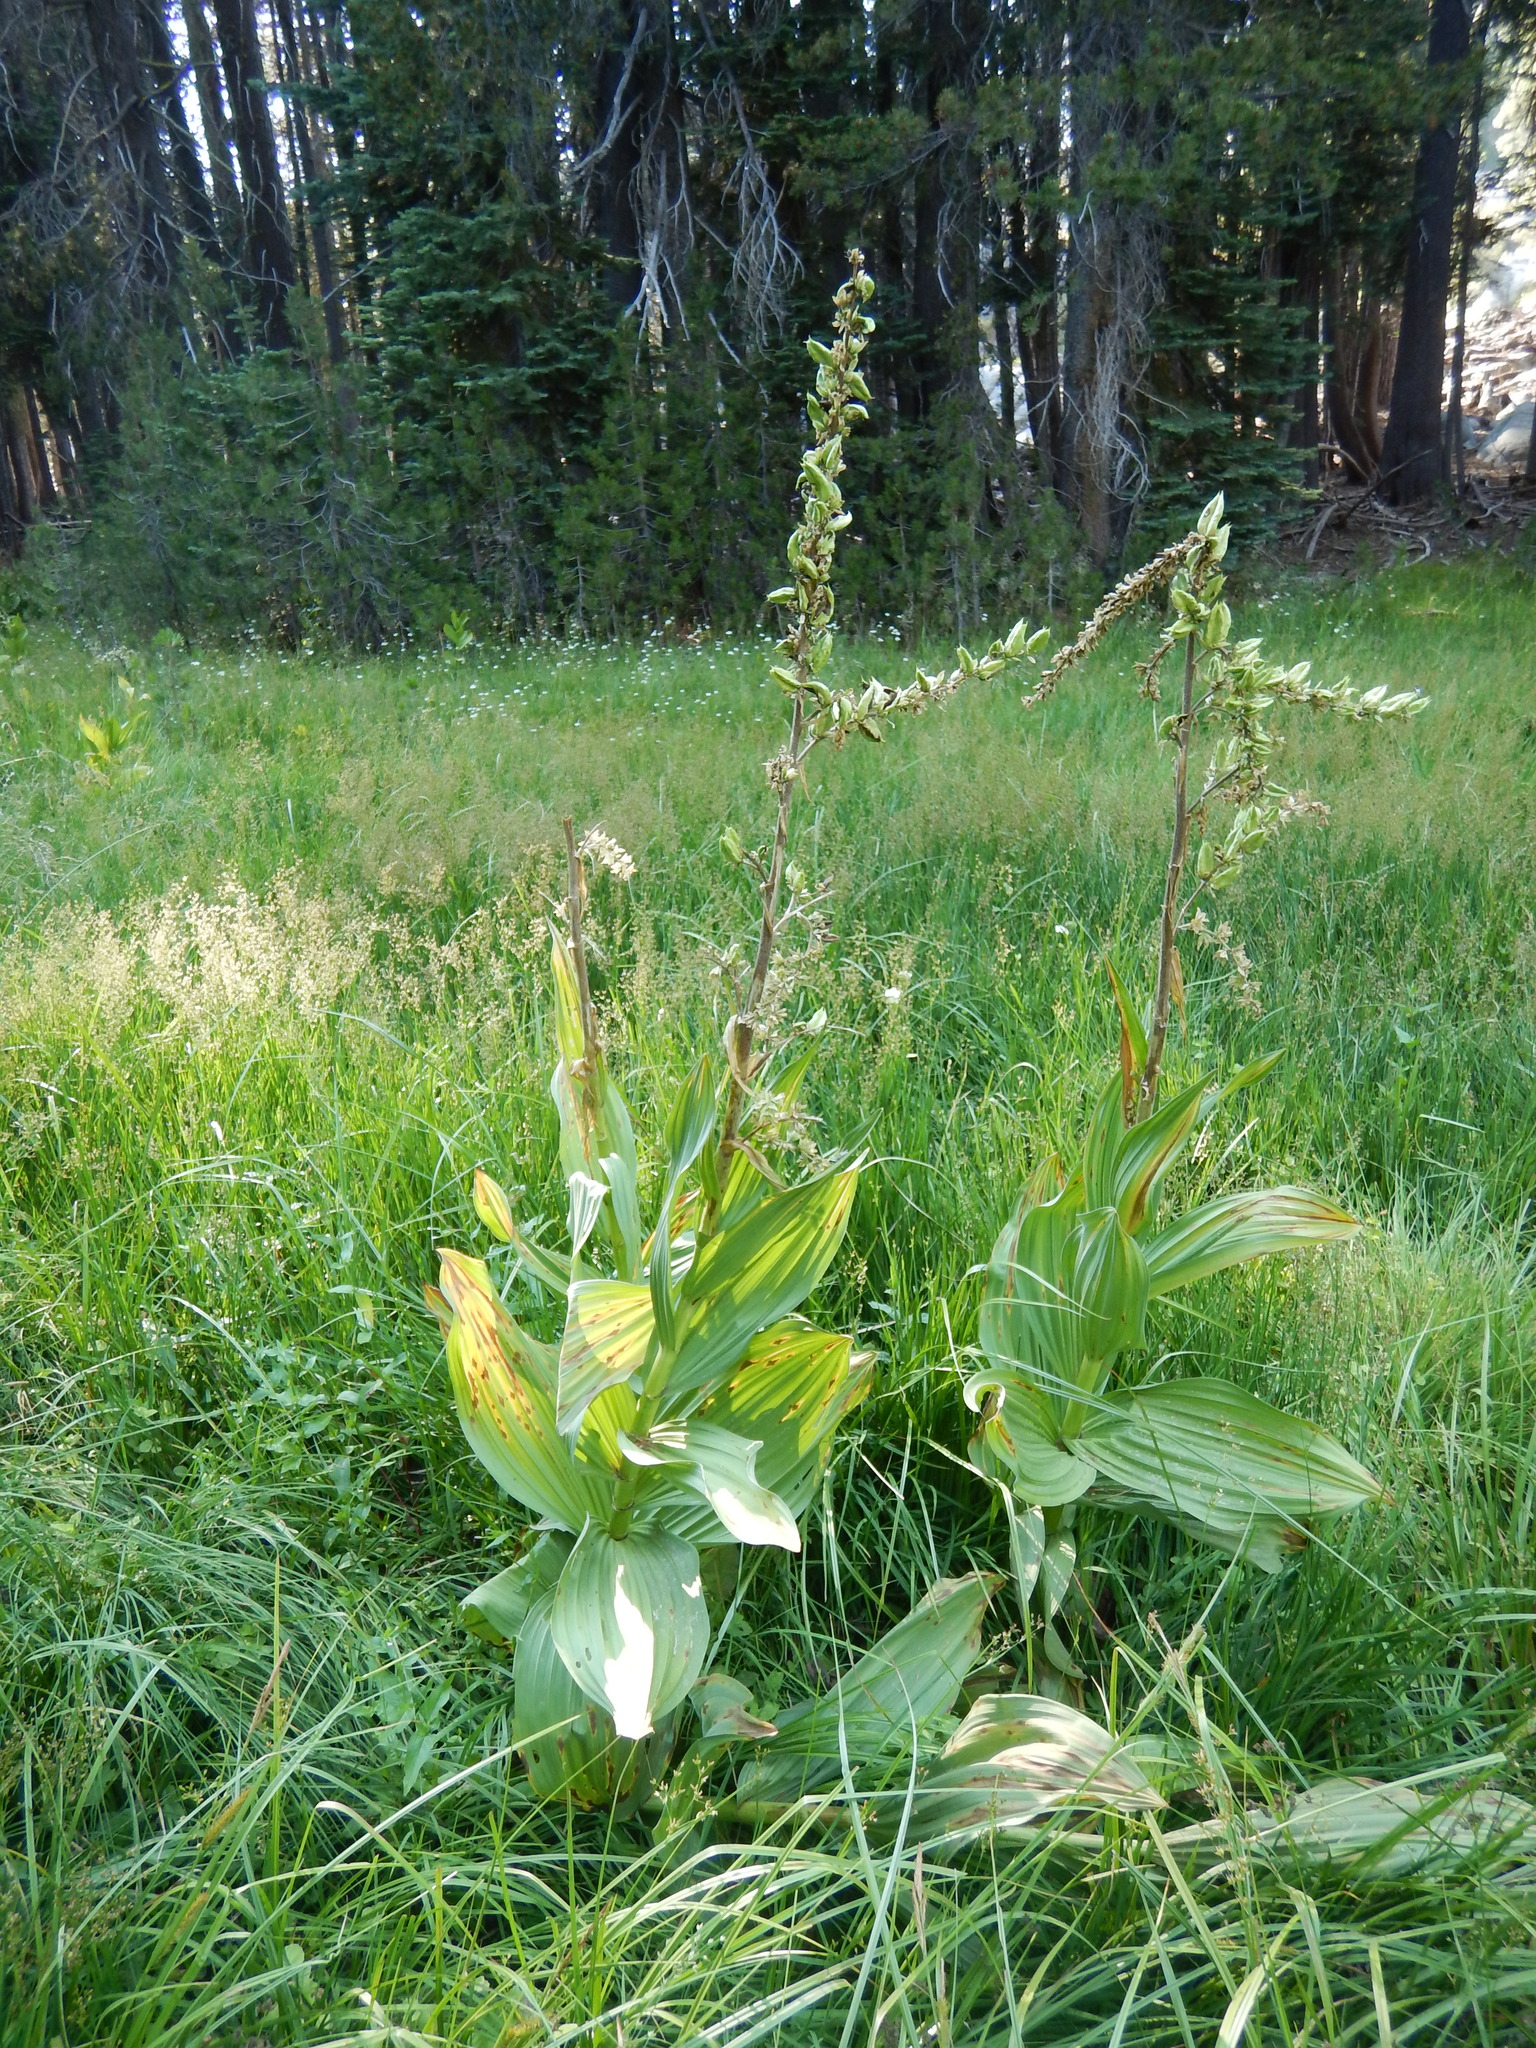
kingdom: Plantae
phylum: Tracheophyta
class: Liliopsida
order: Liliales
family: Melanthiaceae
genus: Veratrum
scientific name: Veratrum californicum
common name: California veratrum
